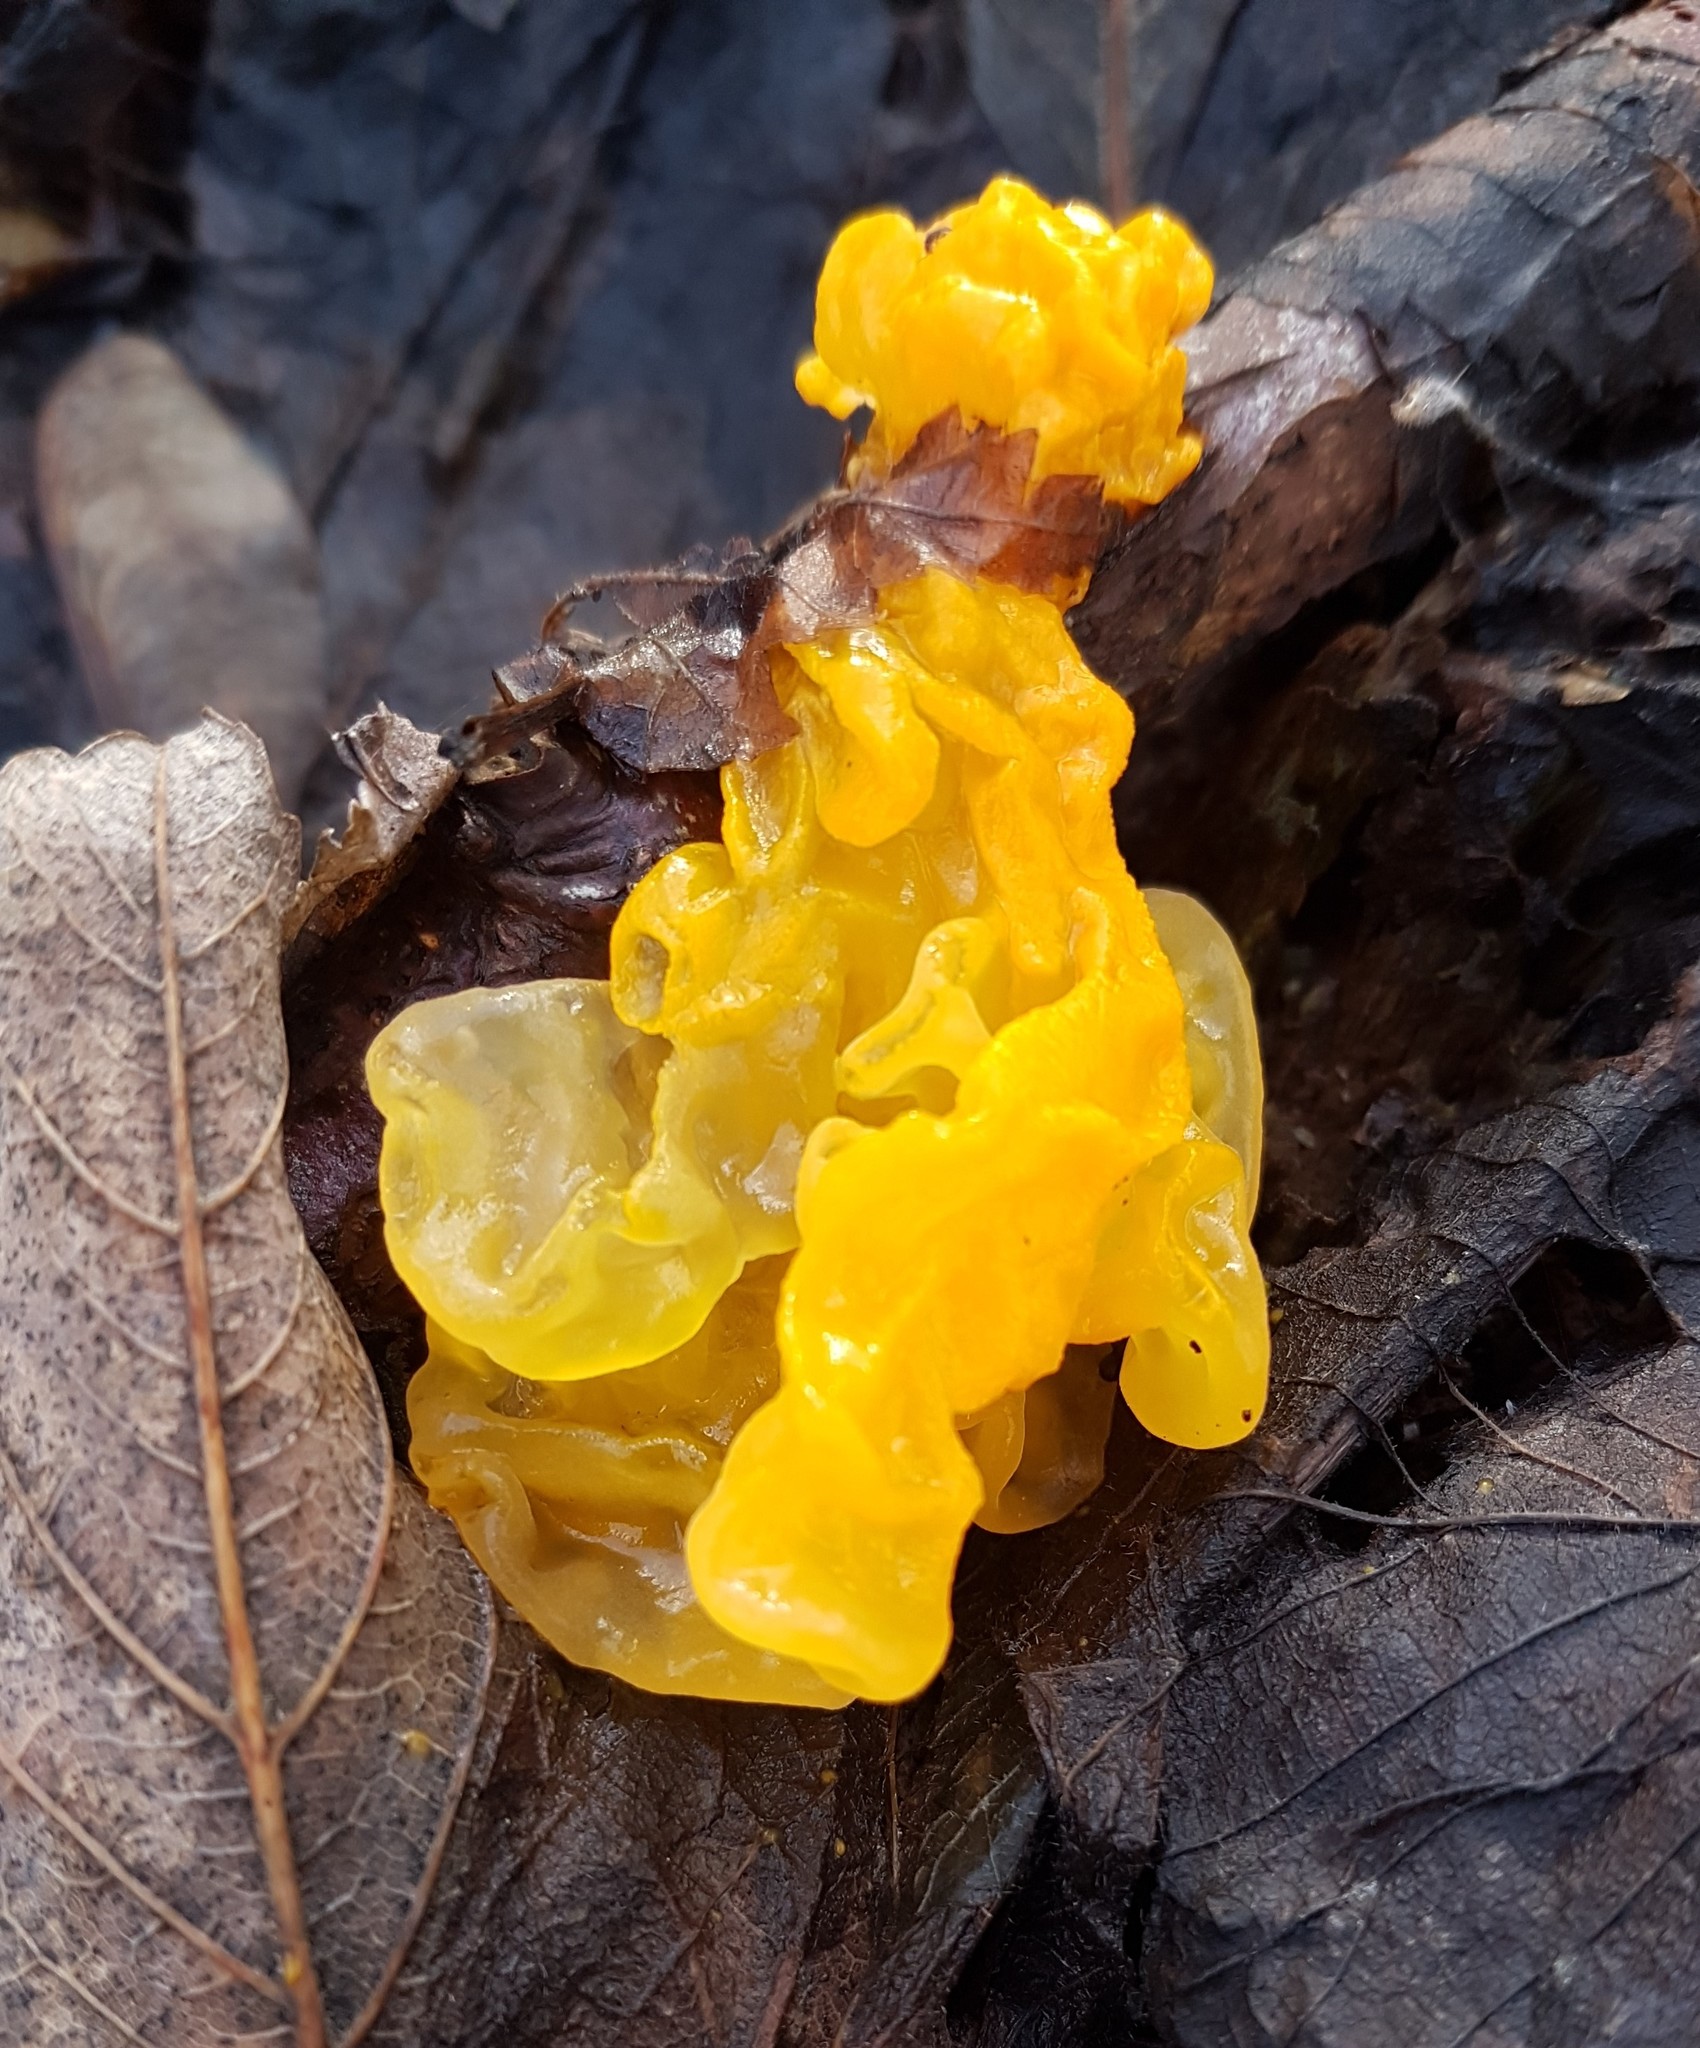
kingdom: Fungi
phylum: Basidiomycota
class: Tremellomycetes
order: Tremellales
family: Tremellaceae
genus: Tremella
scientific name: Tremella mesenterica
